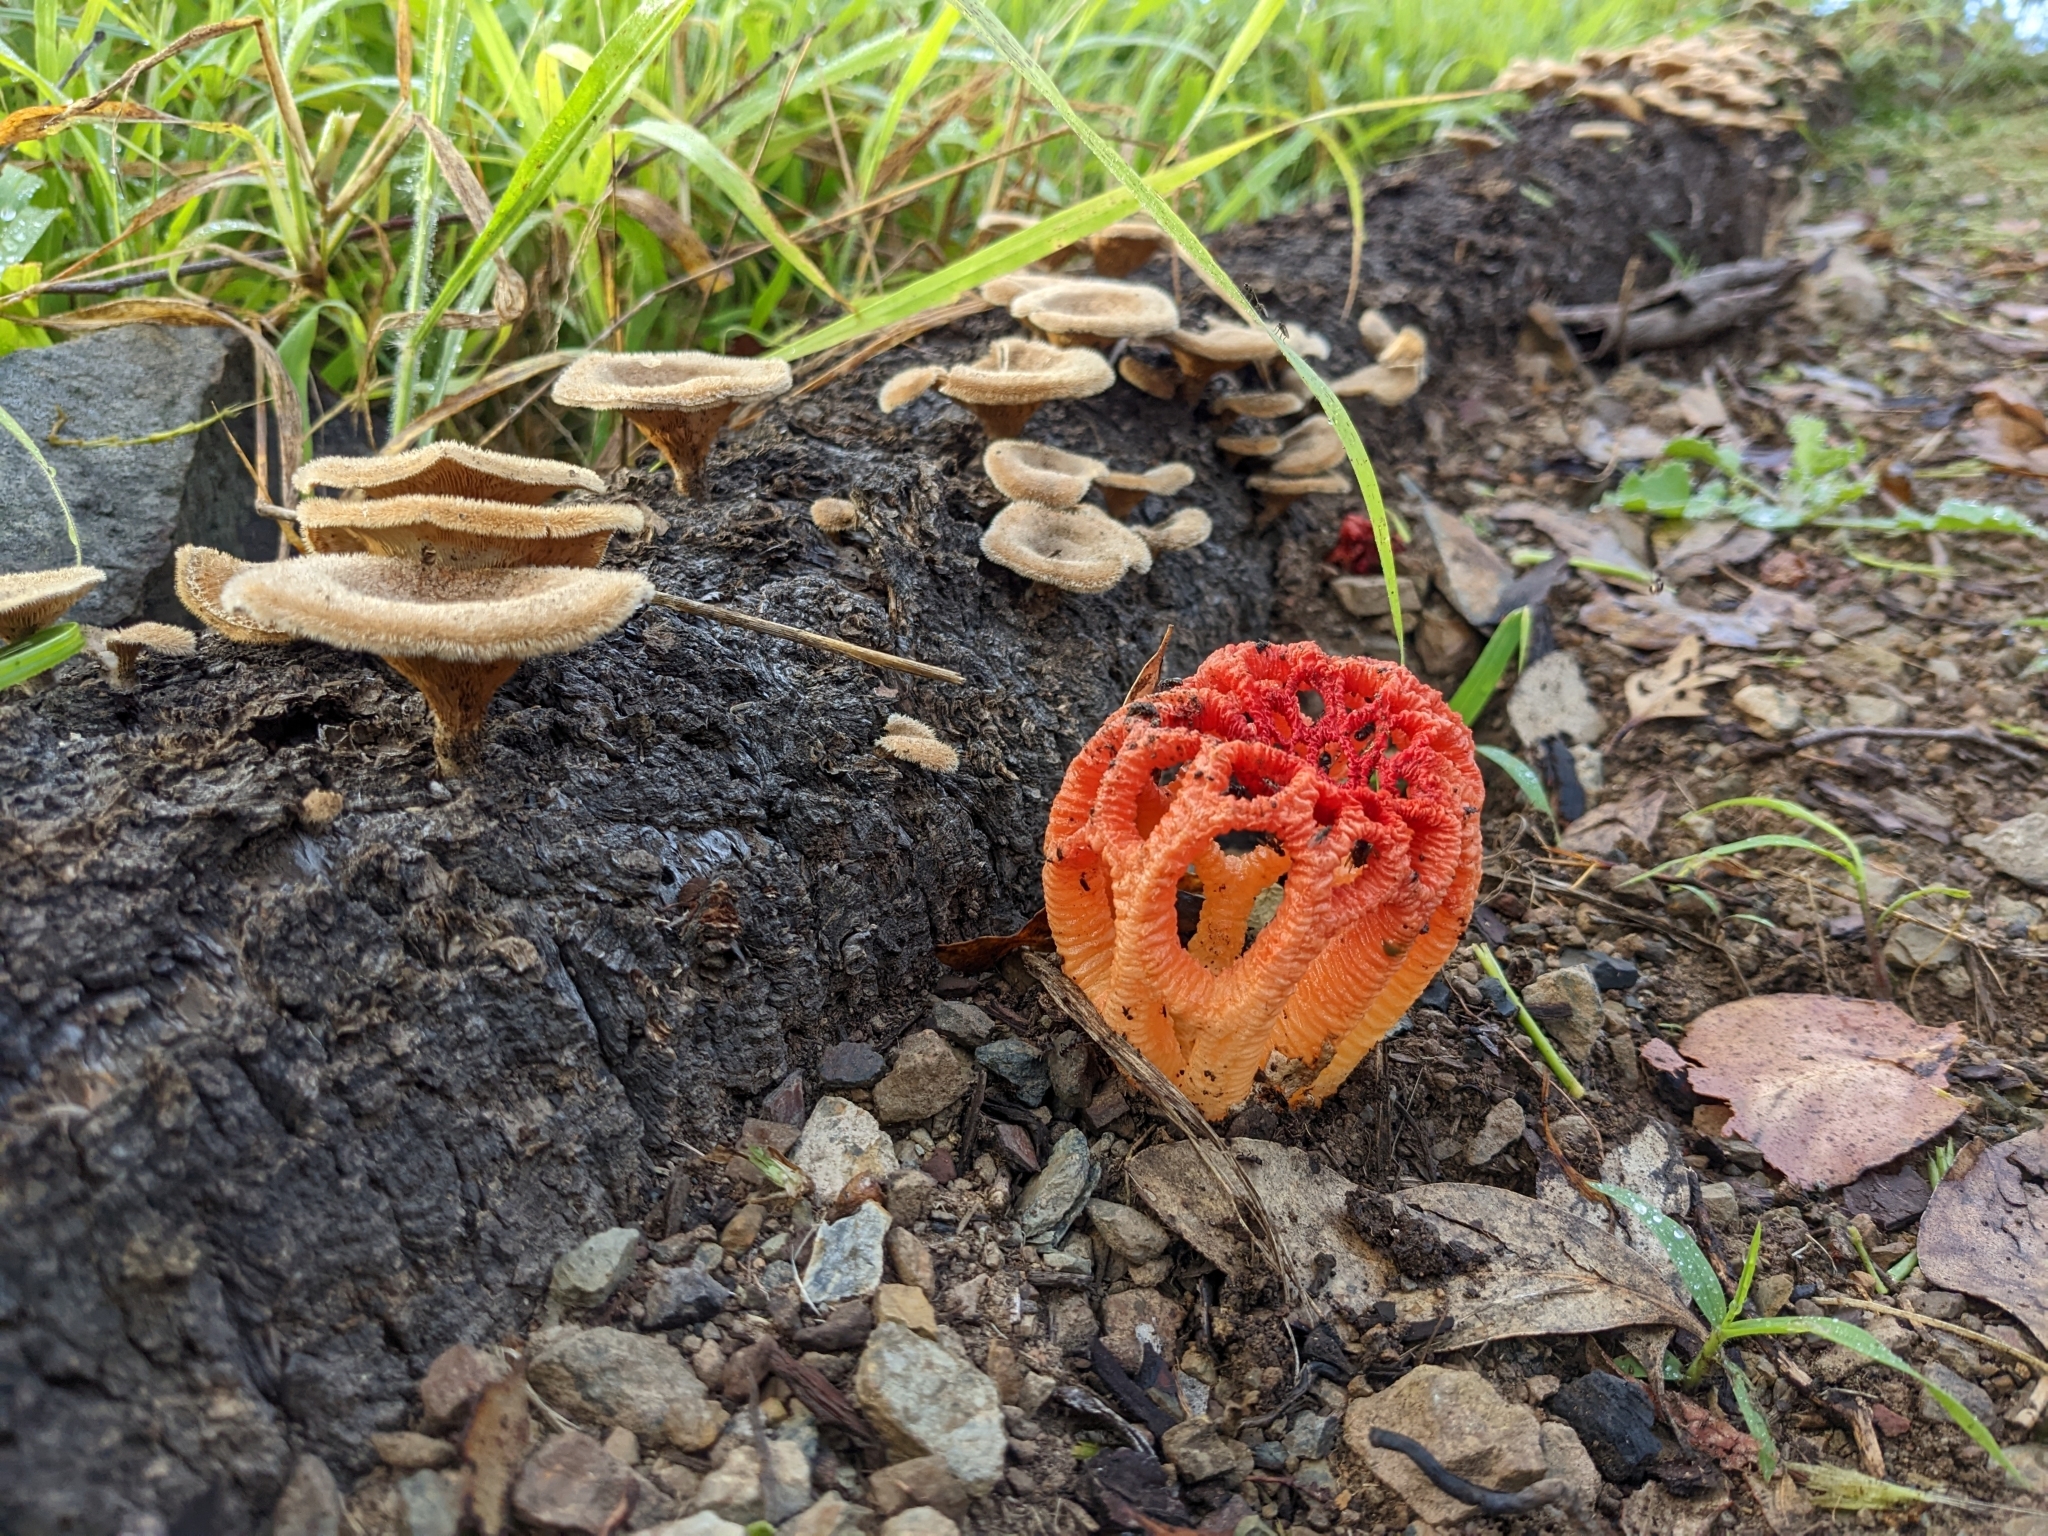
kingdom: Fungi
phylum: Basidiomycota
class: Agaricomycetes
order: Phallales
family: Phallaceae
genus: Colus
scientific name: Colus pusillus
